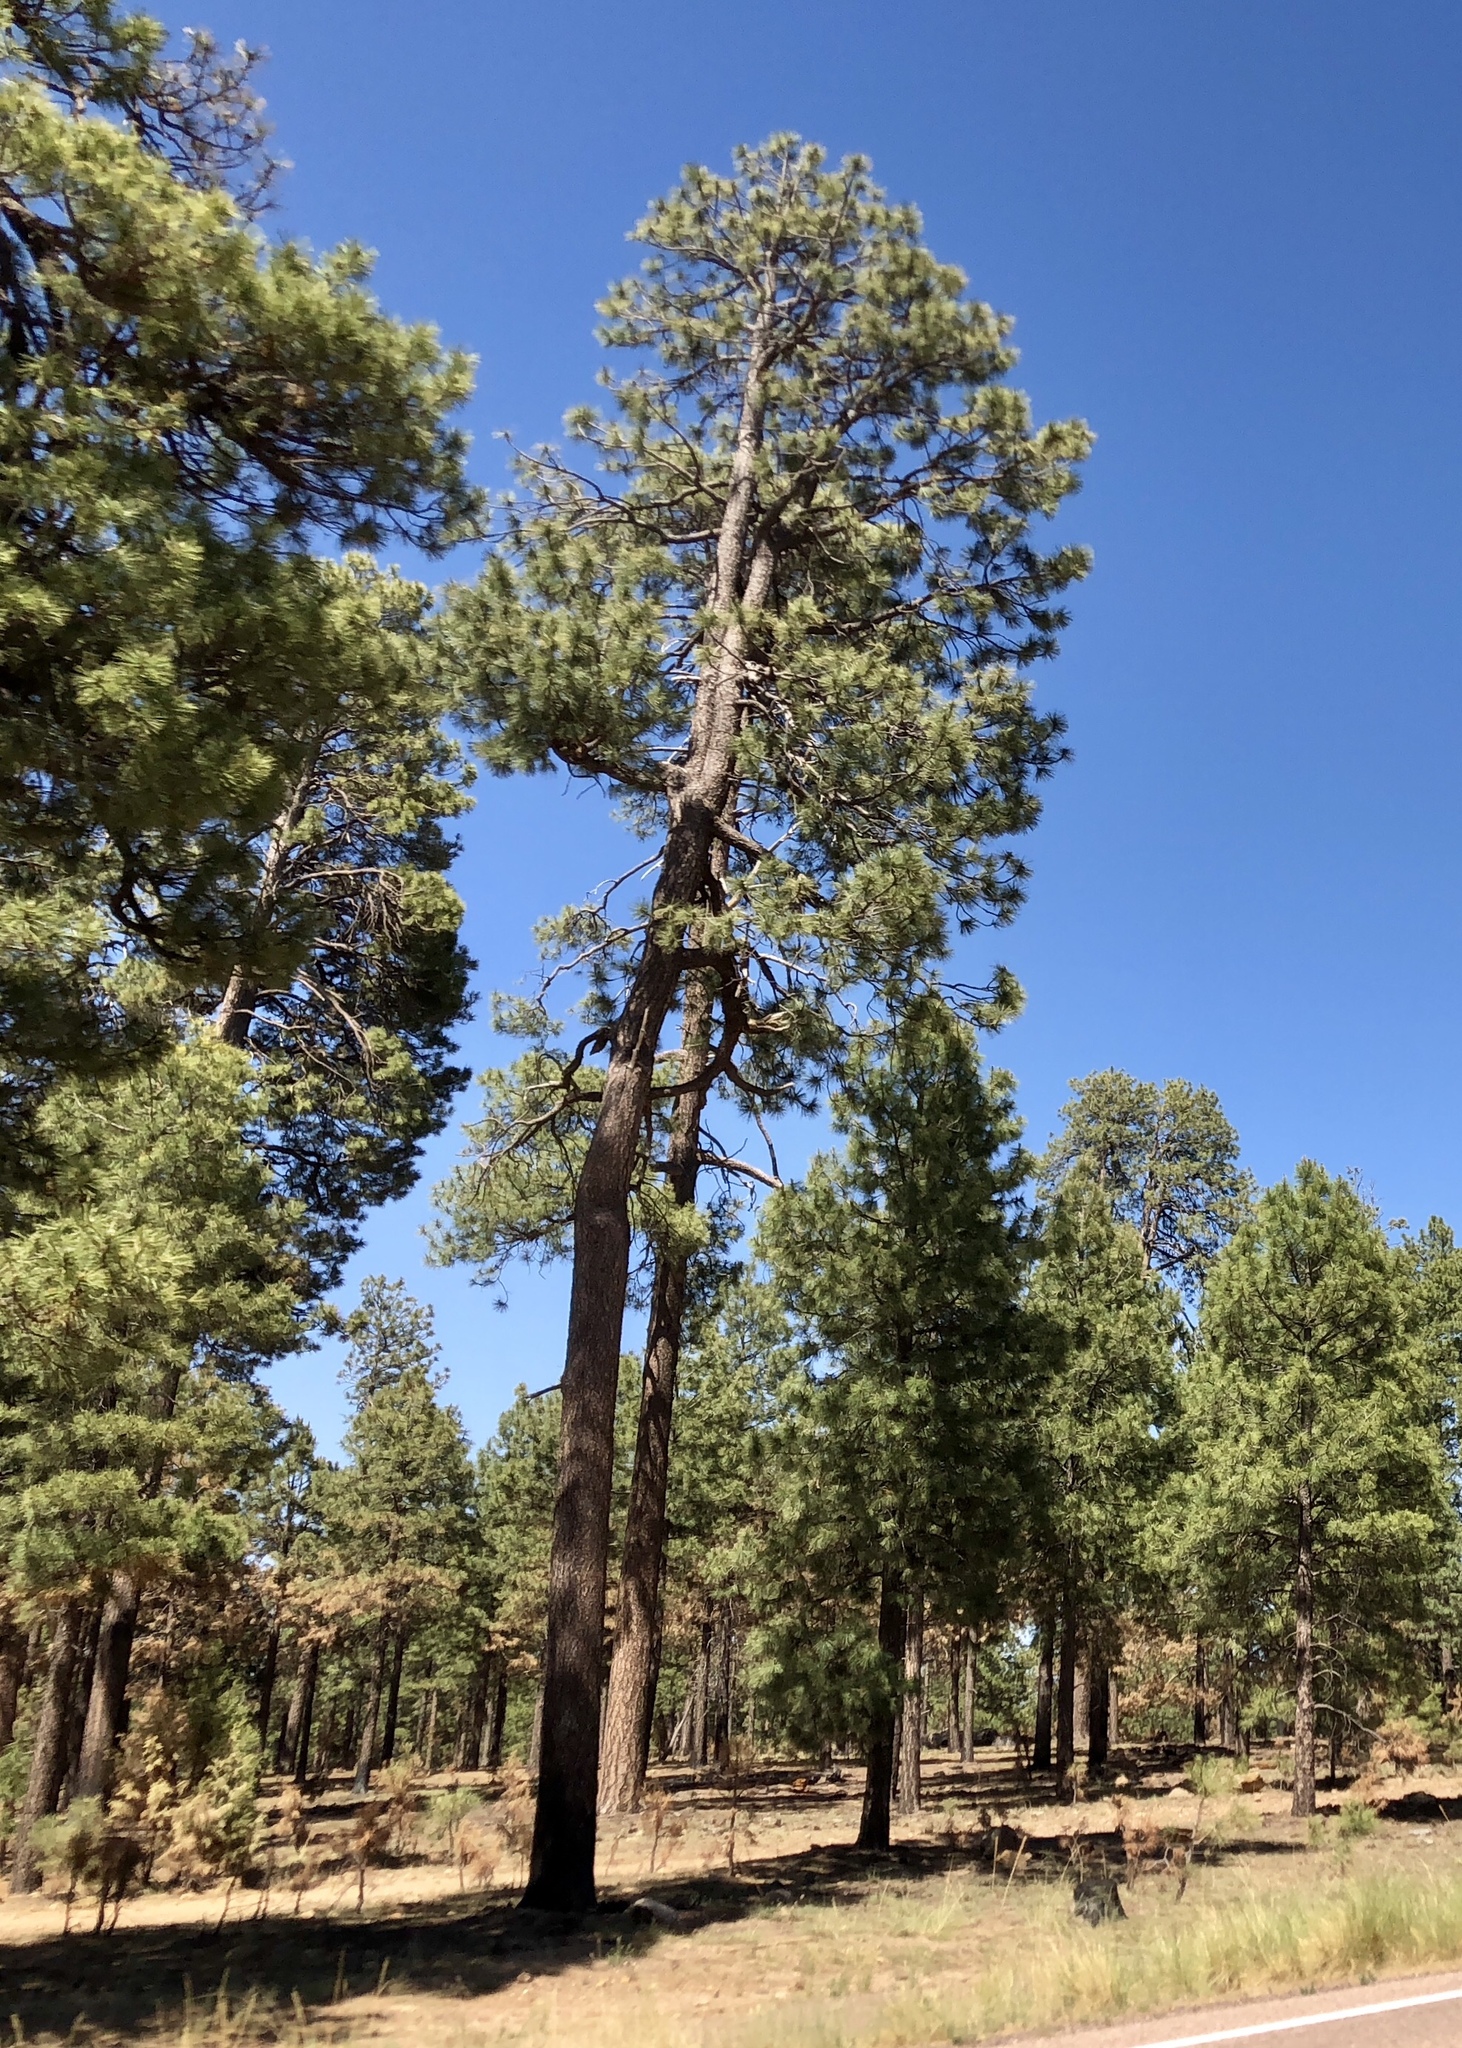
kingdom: Plantae
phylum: Tracheophyta
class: Pinopsida
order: Pinales
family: Pinaceae
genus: Pinus
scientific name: Pinus ponderosa
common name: Western yellow-pine
